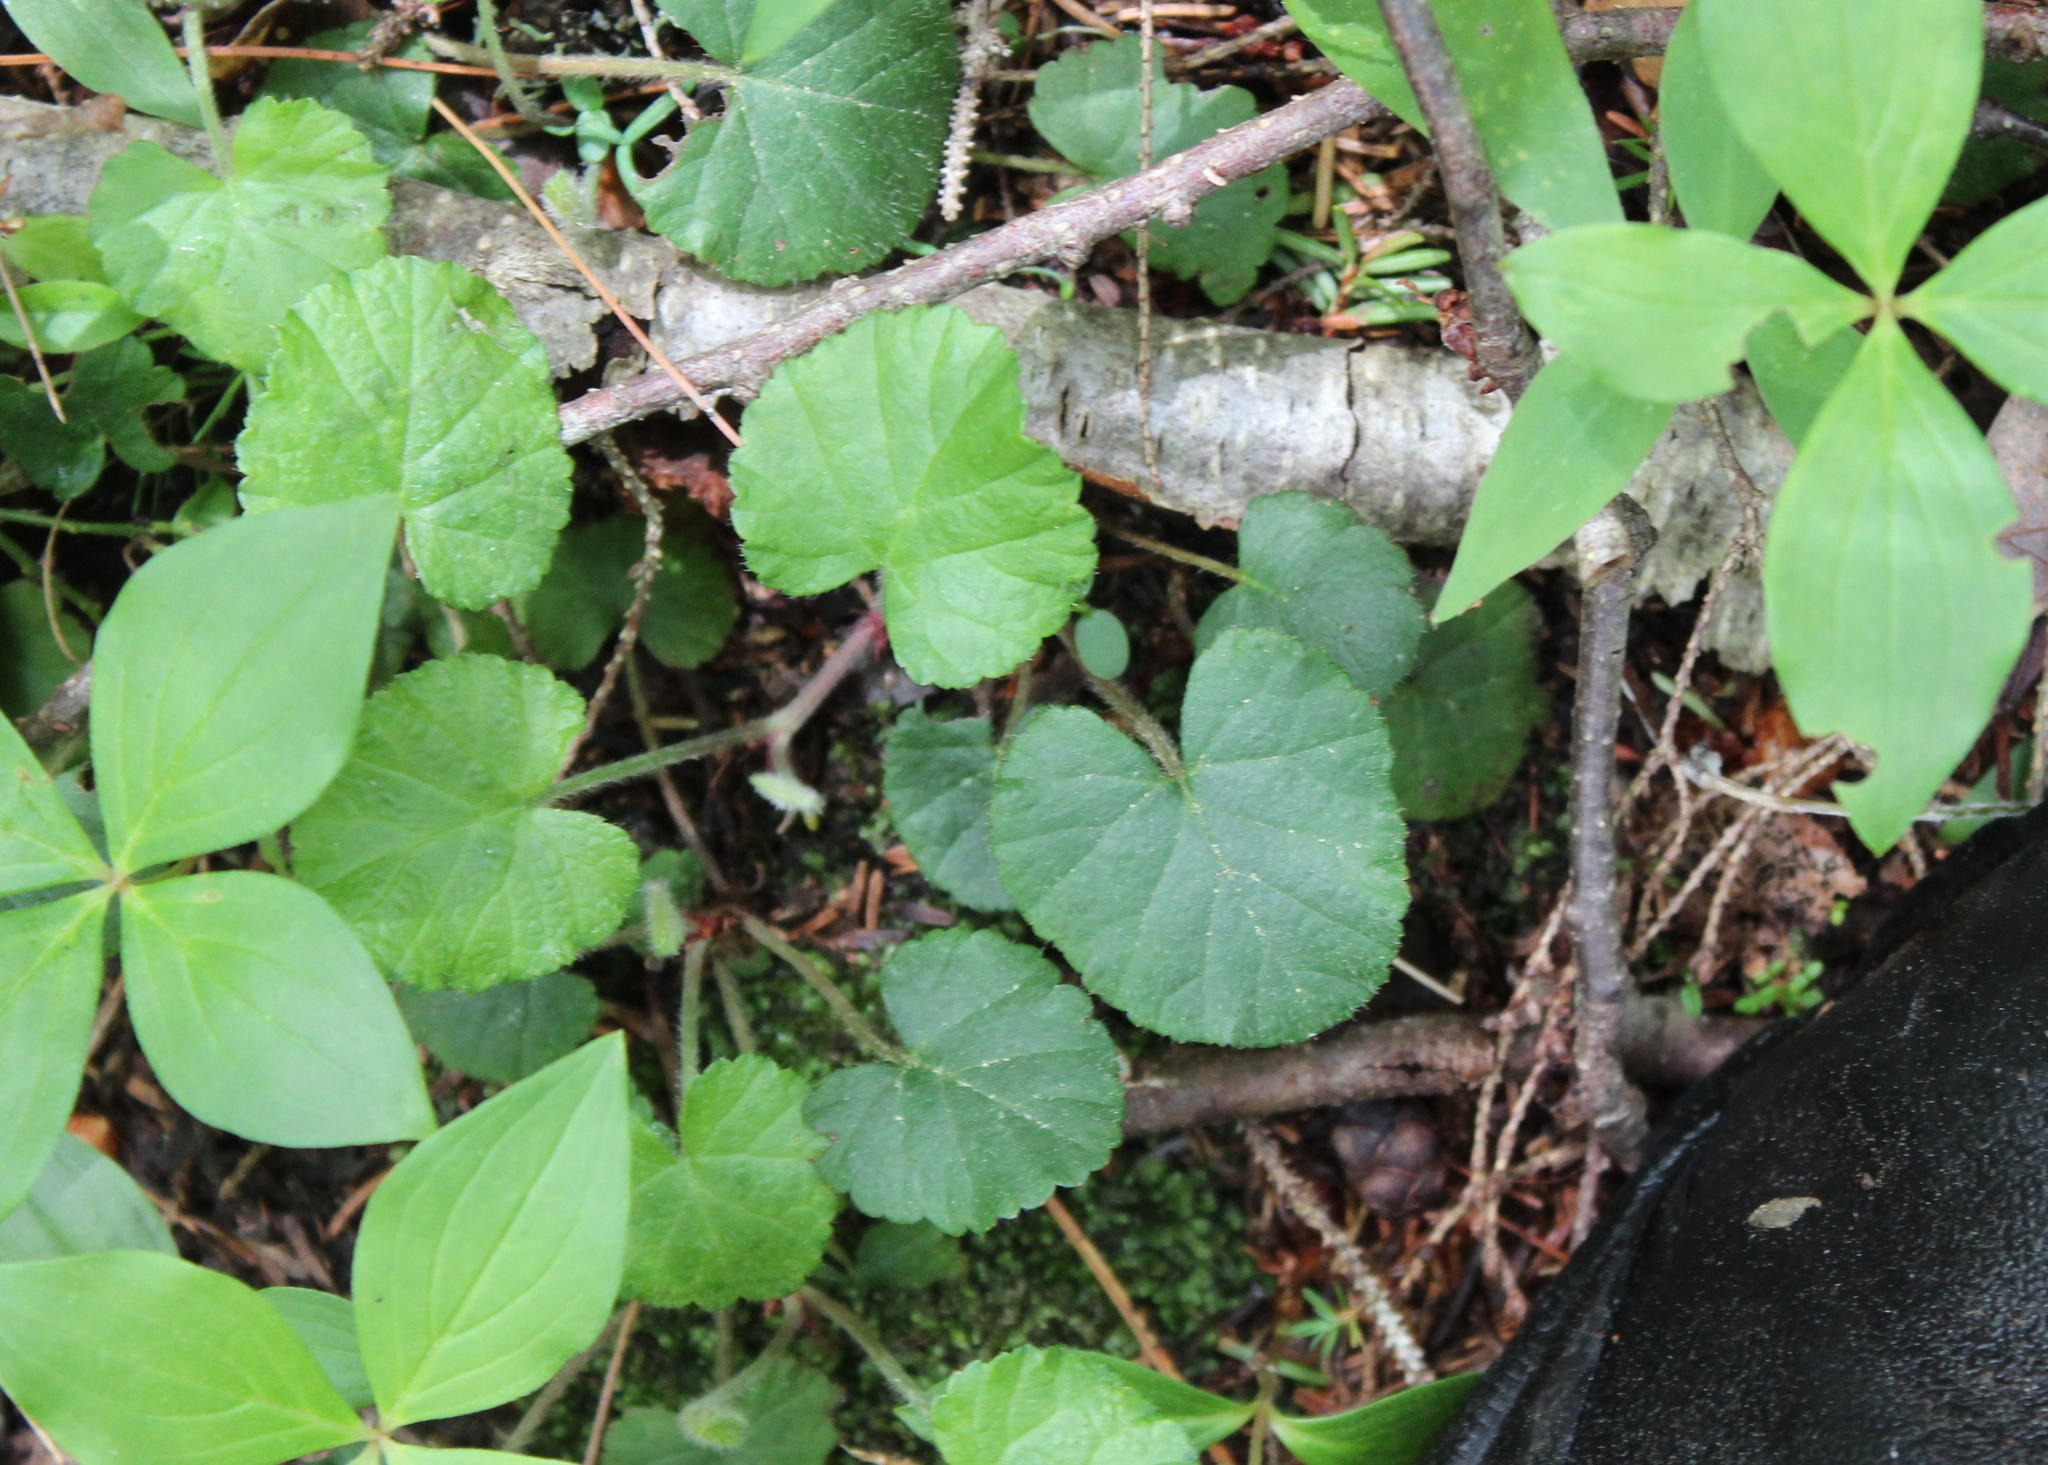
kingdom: Plantae
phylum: Tracheophyta
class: Magnoliopsida
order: Rosales
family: Rosaceae
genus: Dalibarda
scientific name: Dalibarda repens
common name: Dewdrop
